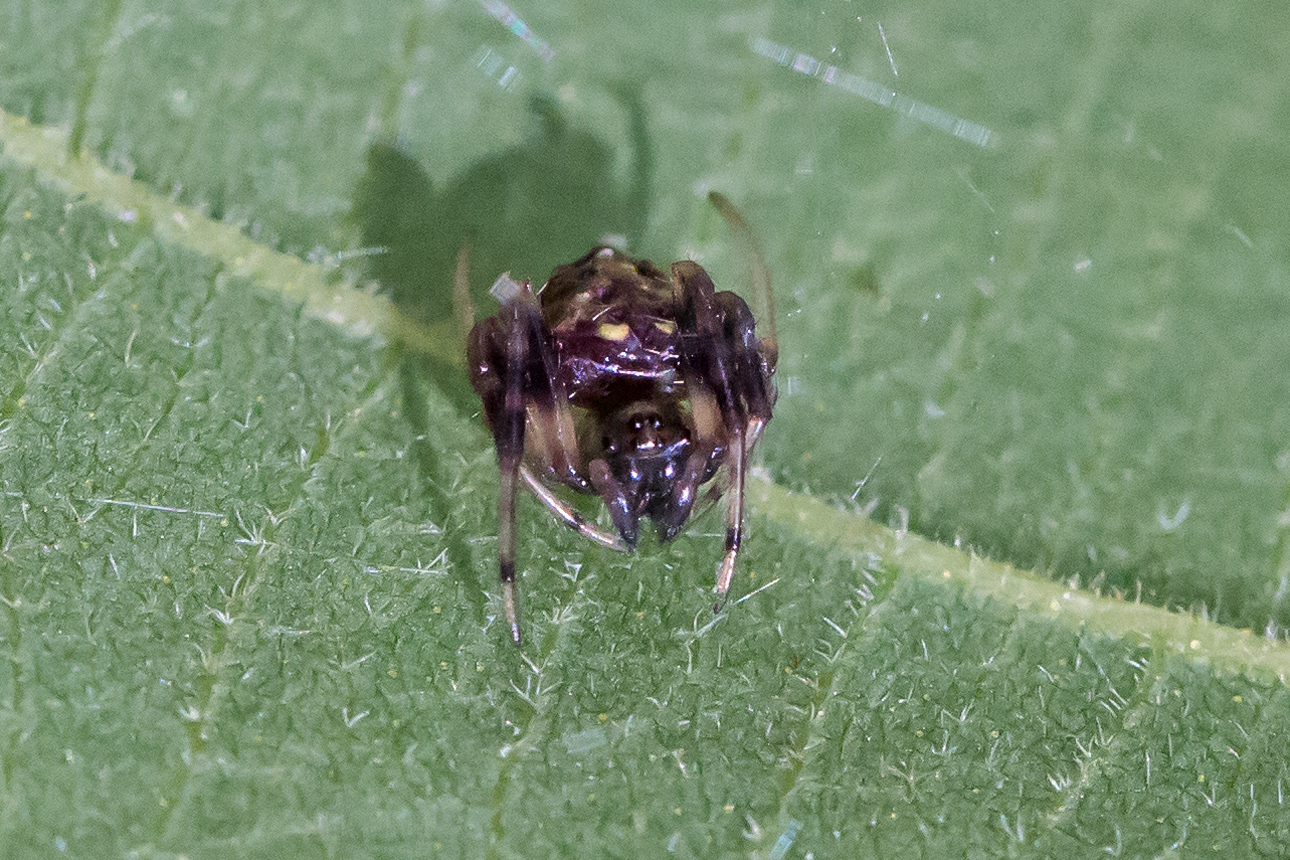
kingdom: Animalia
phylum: Arthropoda
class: Arachnida
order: Araneae
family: Araneidae
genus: Verrucosa
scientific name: Verrucosa arenata
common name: Orb weavers
